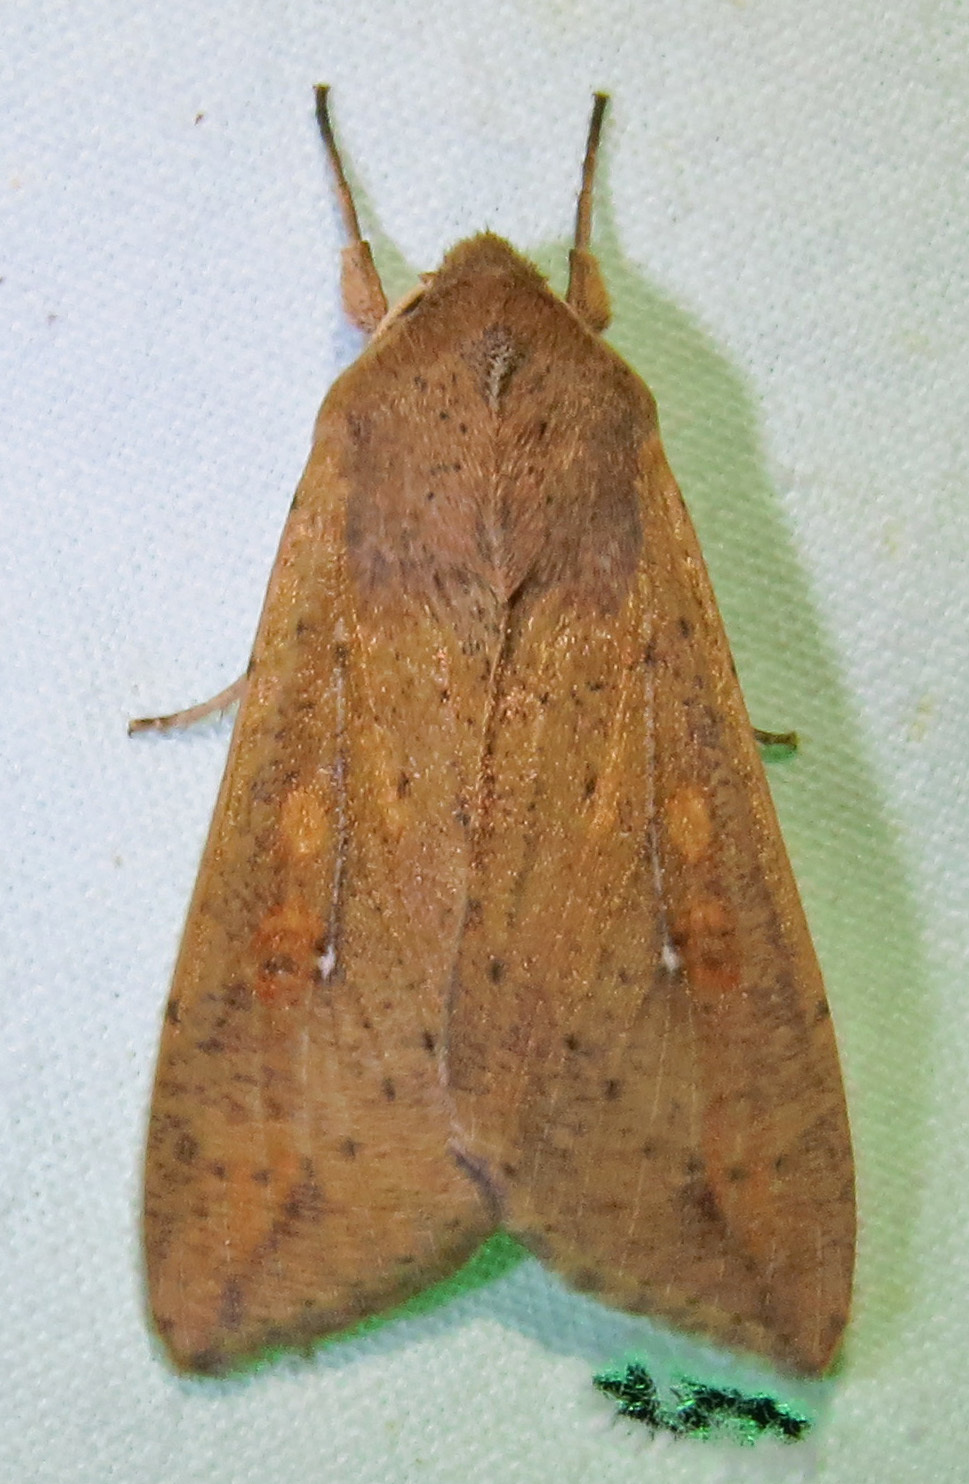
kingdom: Animalia
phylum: Arthropoda
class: Insecta
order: Lepidoptera
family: Noctuidae
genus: Mythimna
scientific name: Mythimna unipuncta
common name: White-speck
